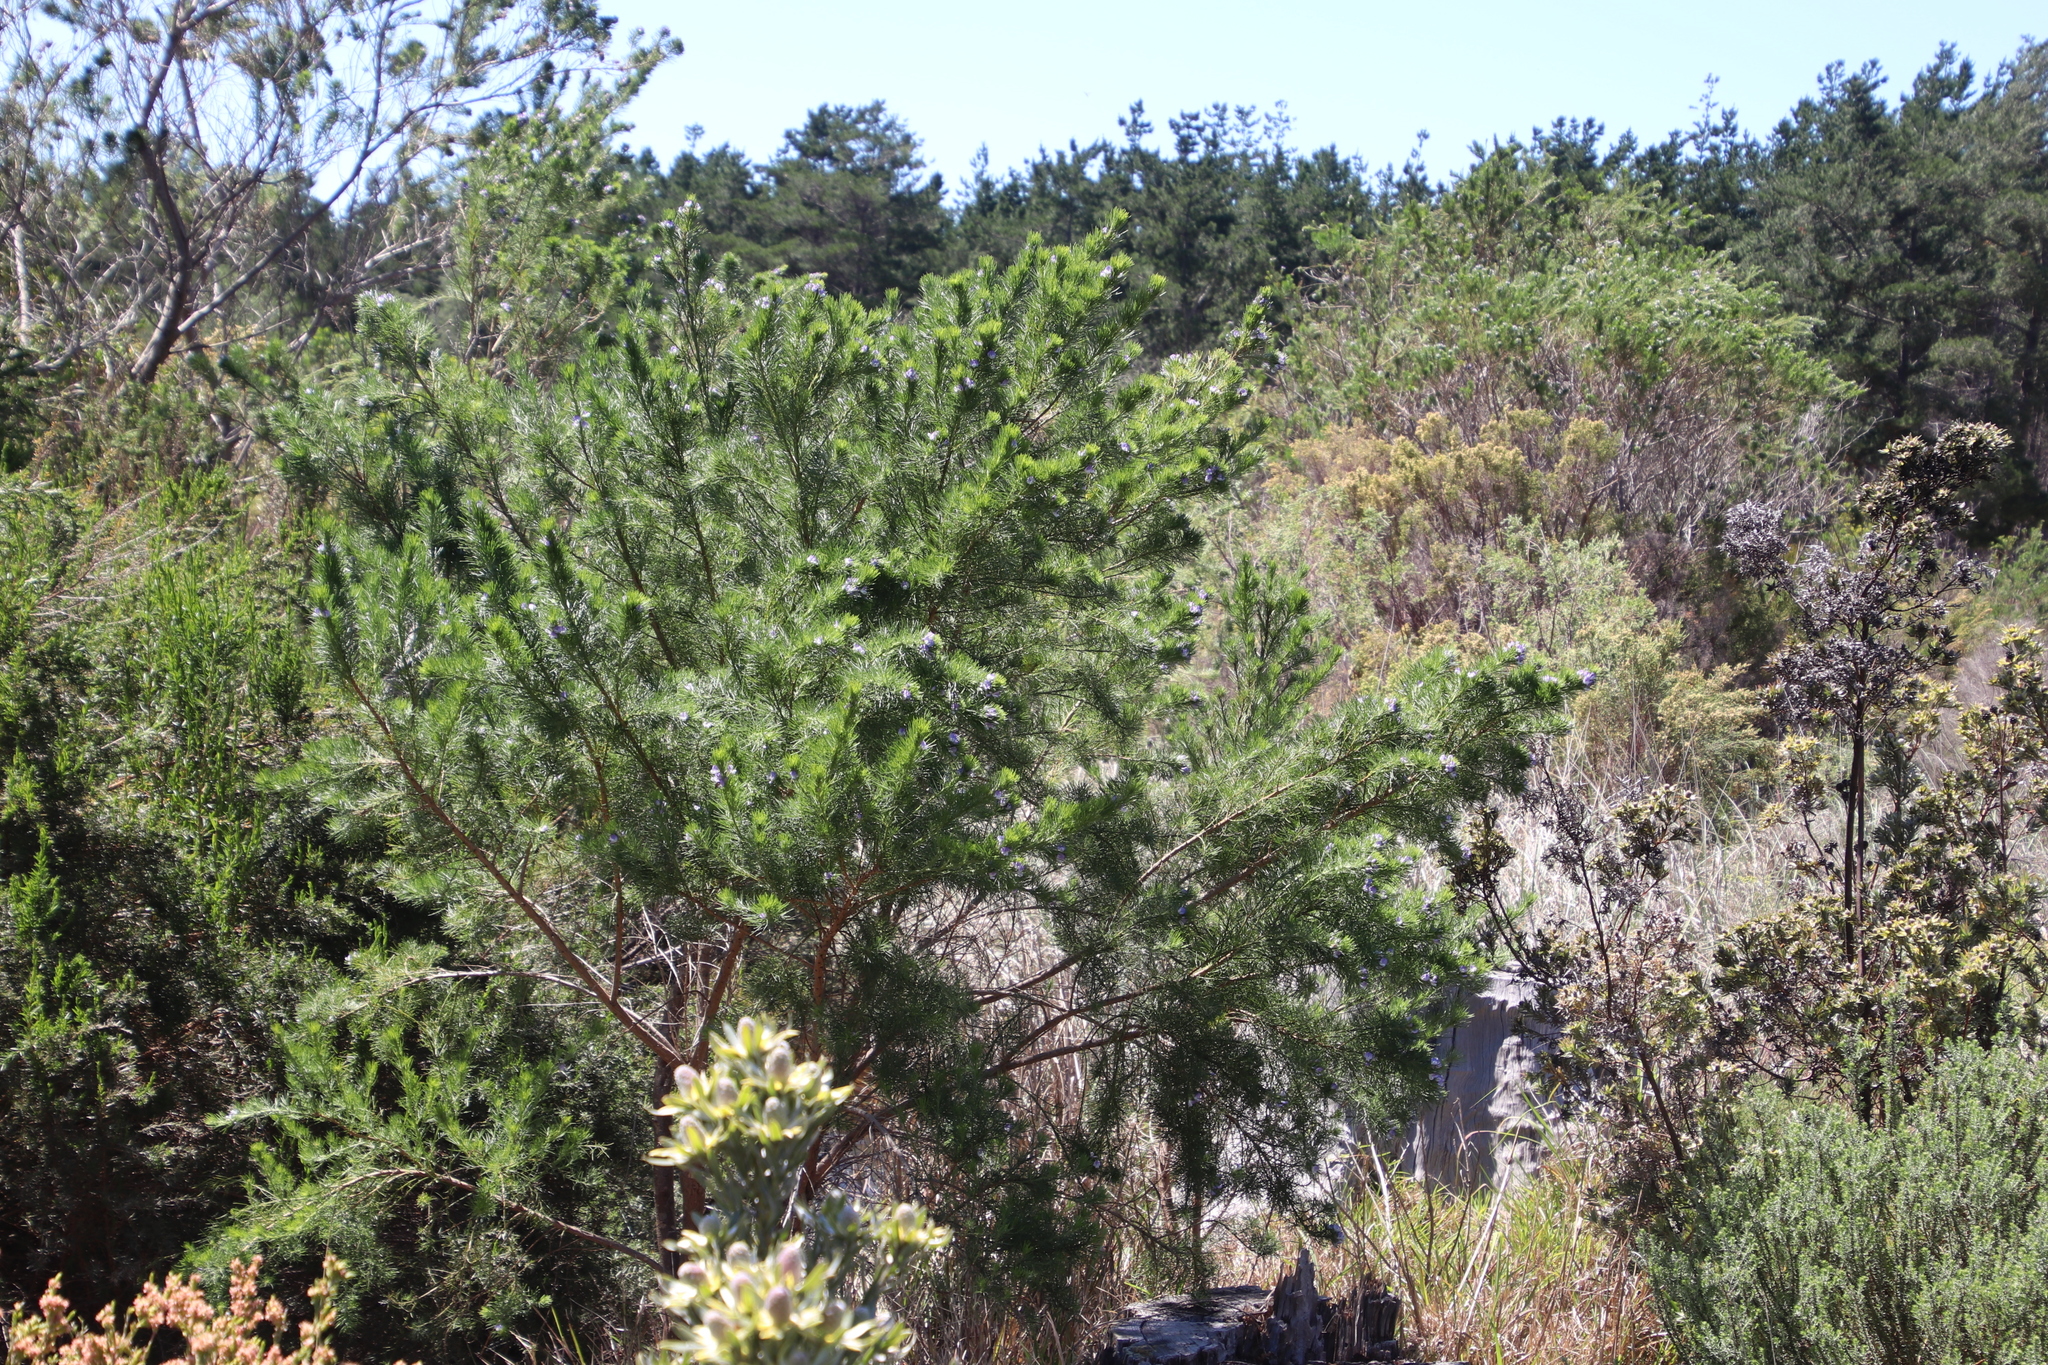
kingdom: Plantae
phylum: Tracheophyta
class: Magnoliopsida
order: Fabales
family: Fabaceae
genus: Psoralea
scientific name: Psoralea pinnata
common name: African scurfpea
